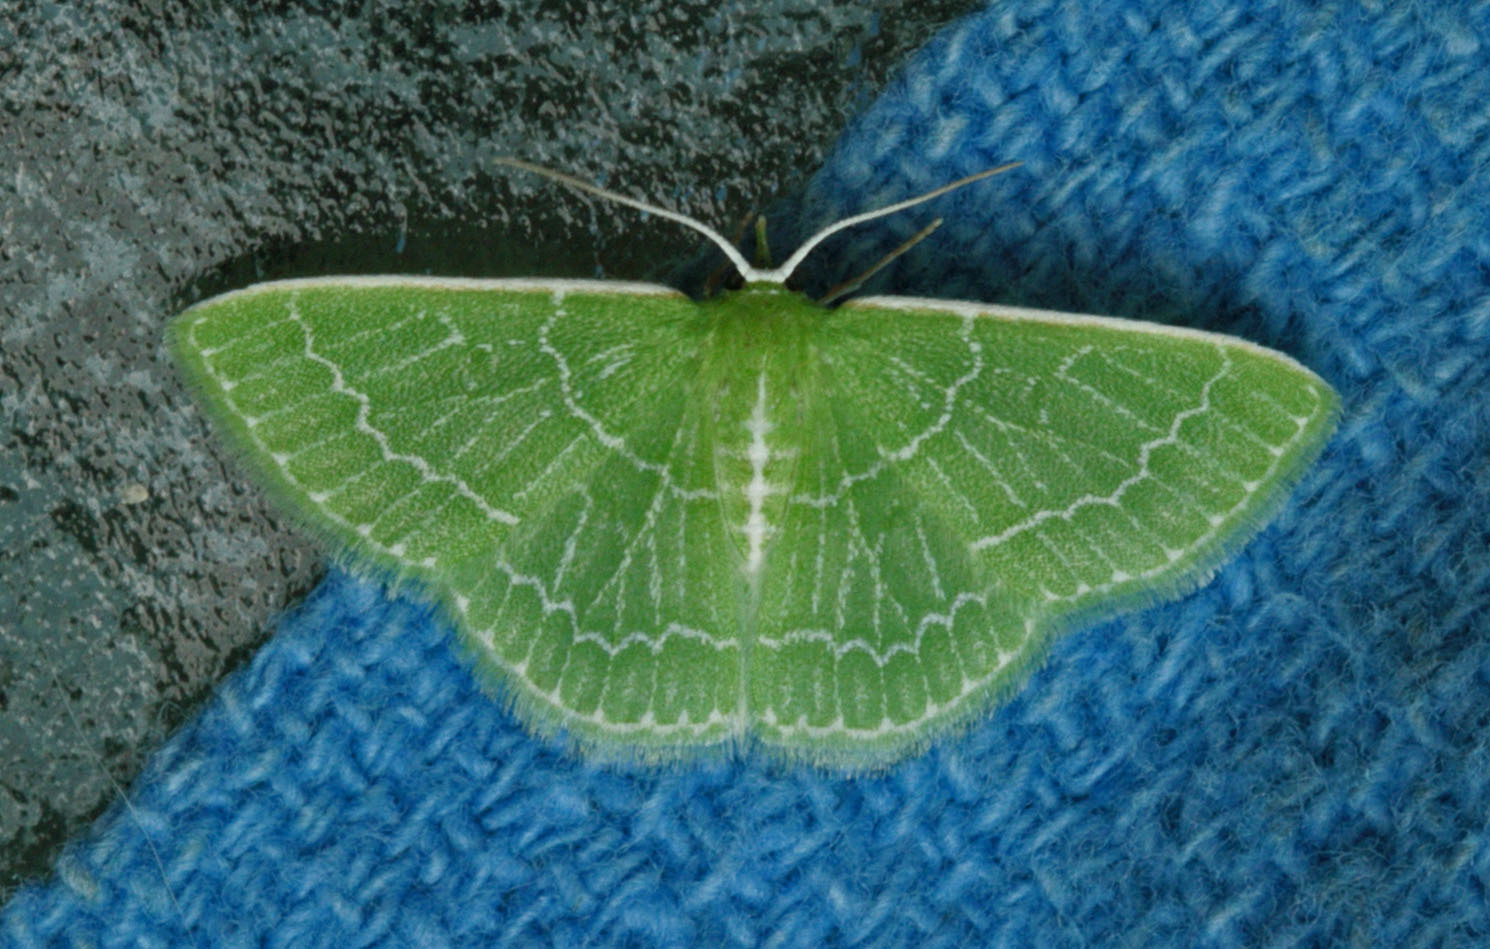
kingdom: Animalia
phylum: Arthropoda
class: Insecta
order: Lepidoptera
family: Geometridae
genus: Synchlora
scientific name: Synchlora aerata
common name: Wavy-lined emerald
